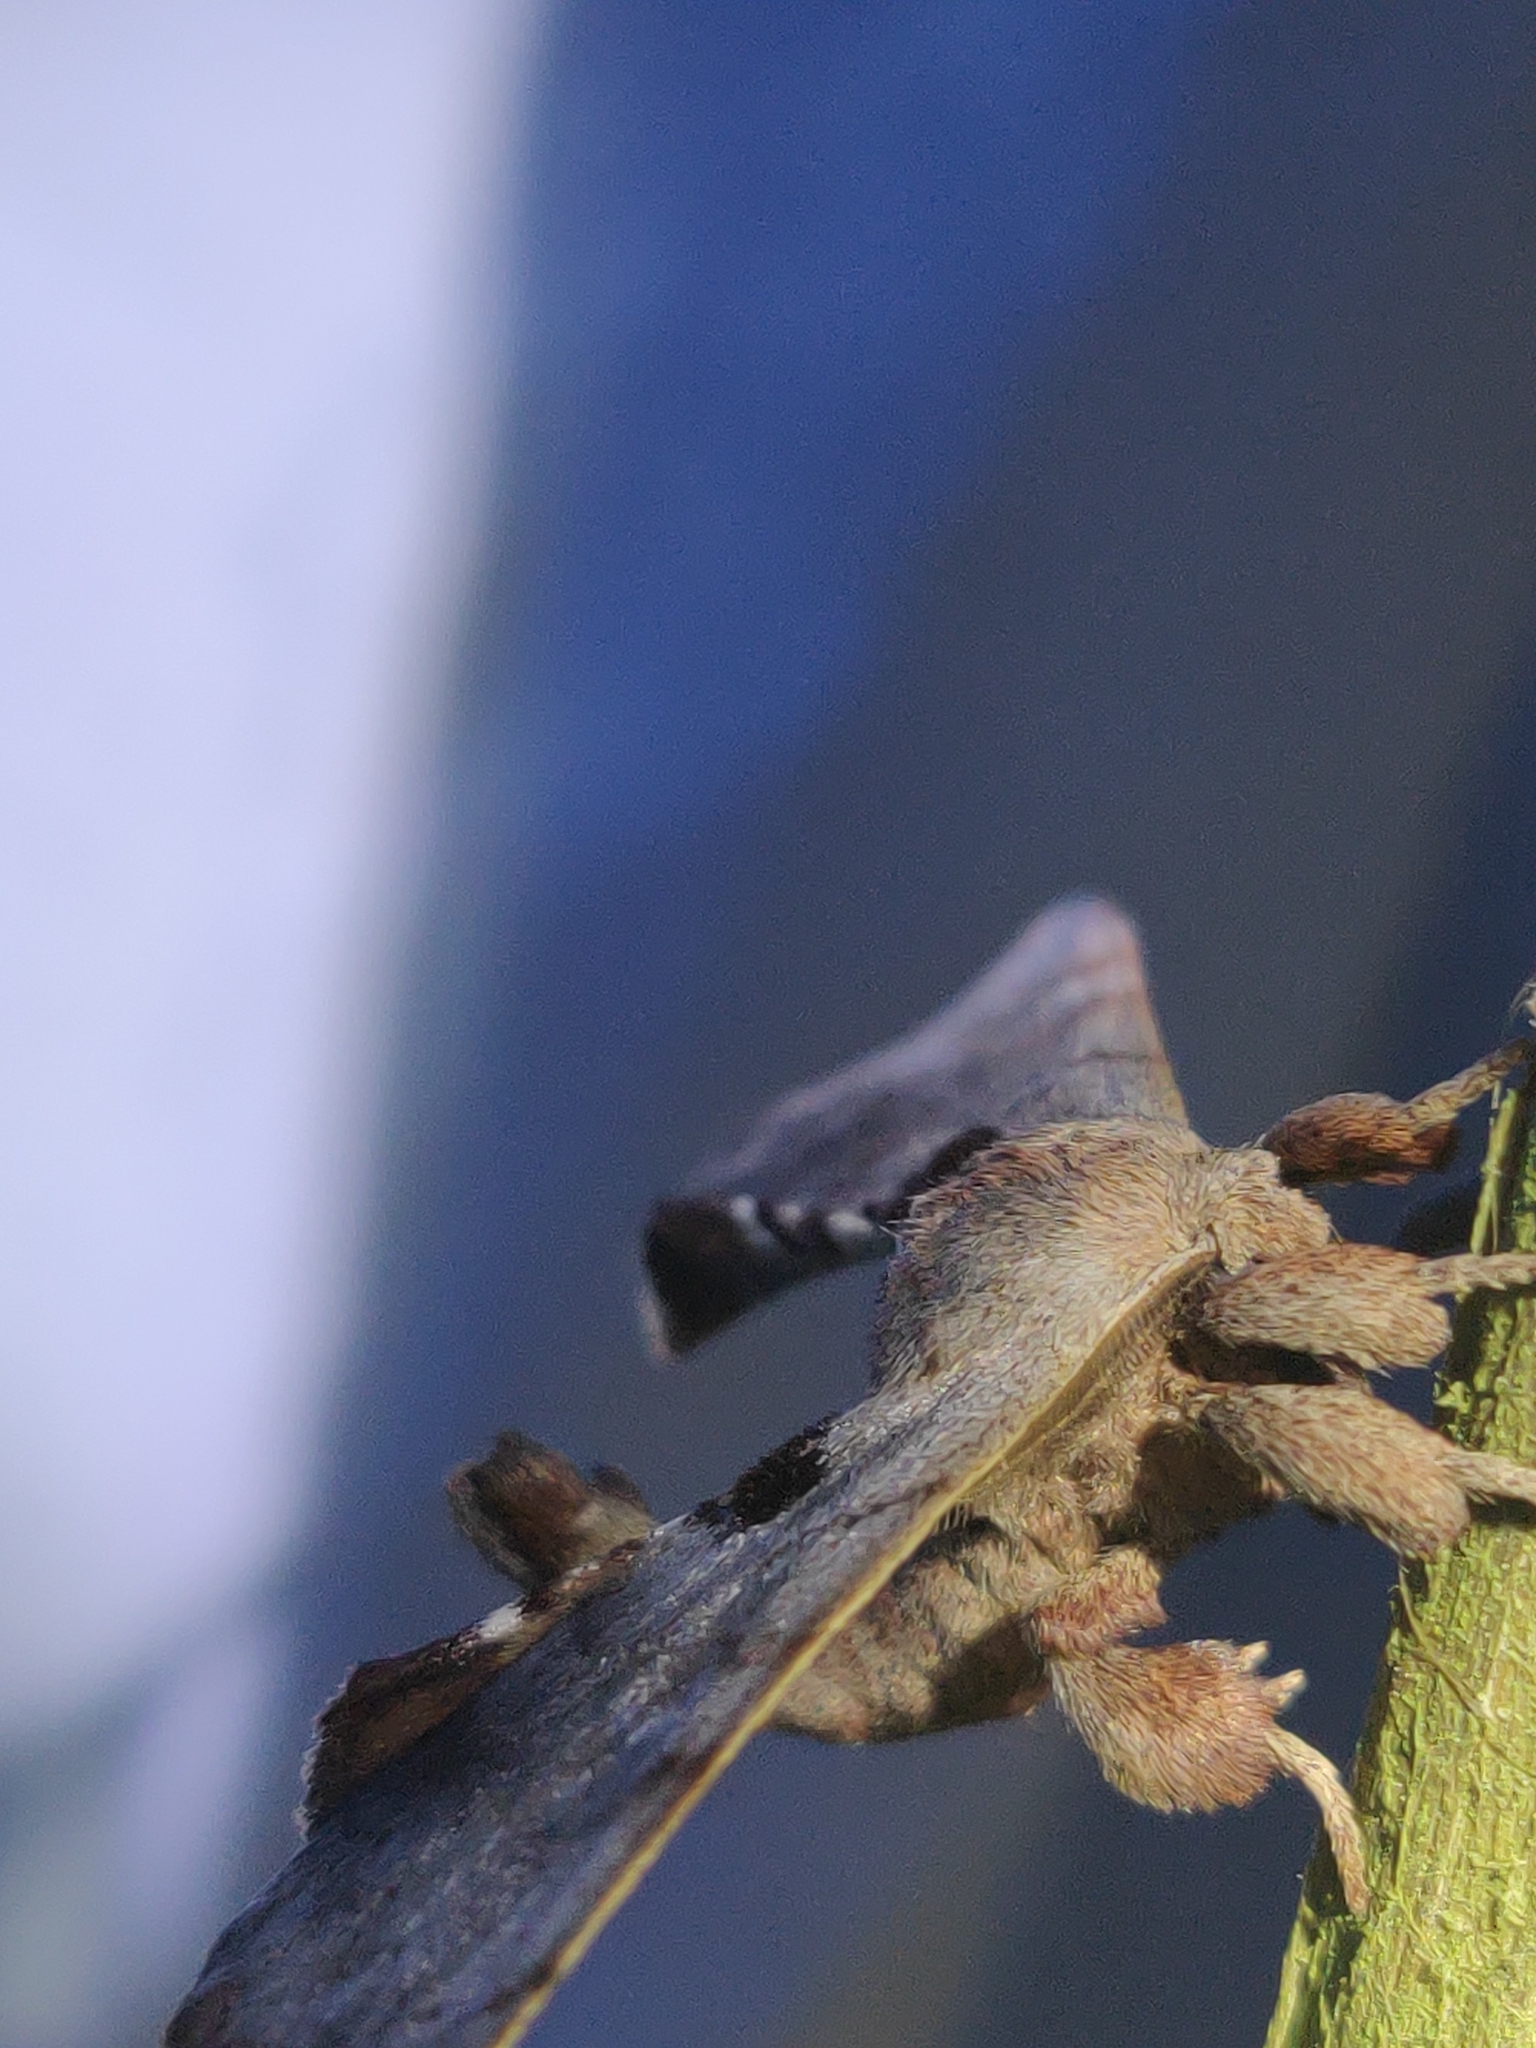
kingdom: Animalia
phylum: Arthropoda
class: Insecta
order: Lepidoptera
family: Apatelodidae
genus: Hygrochroa
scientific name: Hygrochroa Apatelodes torrefacta
